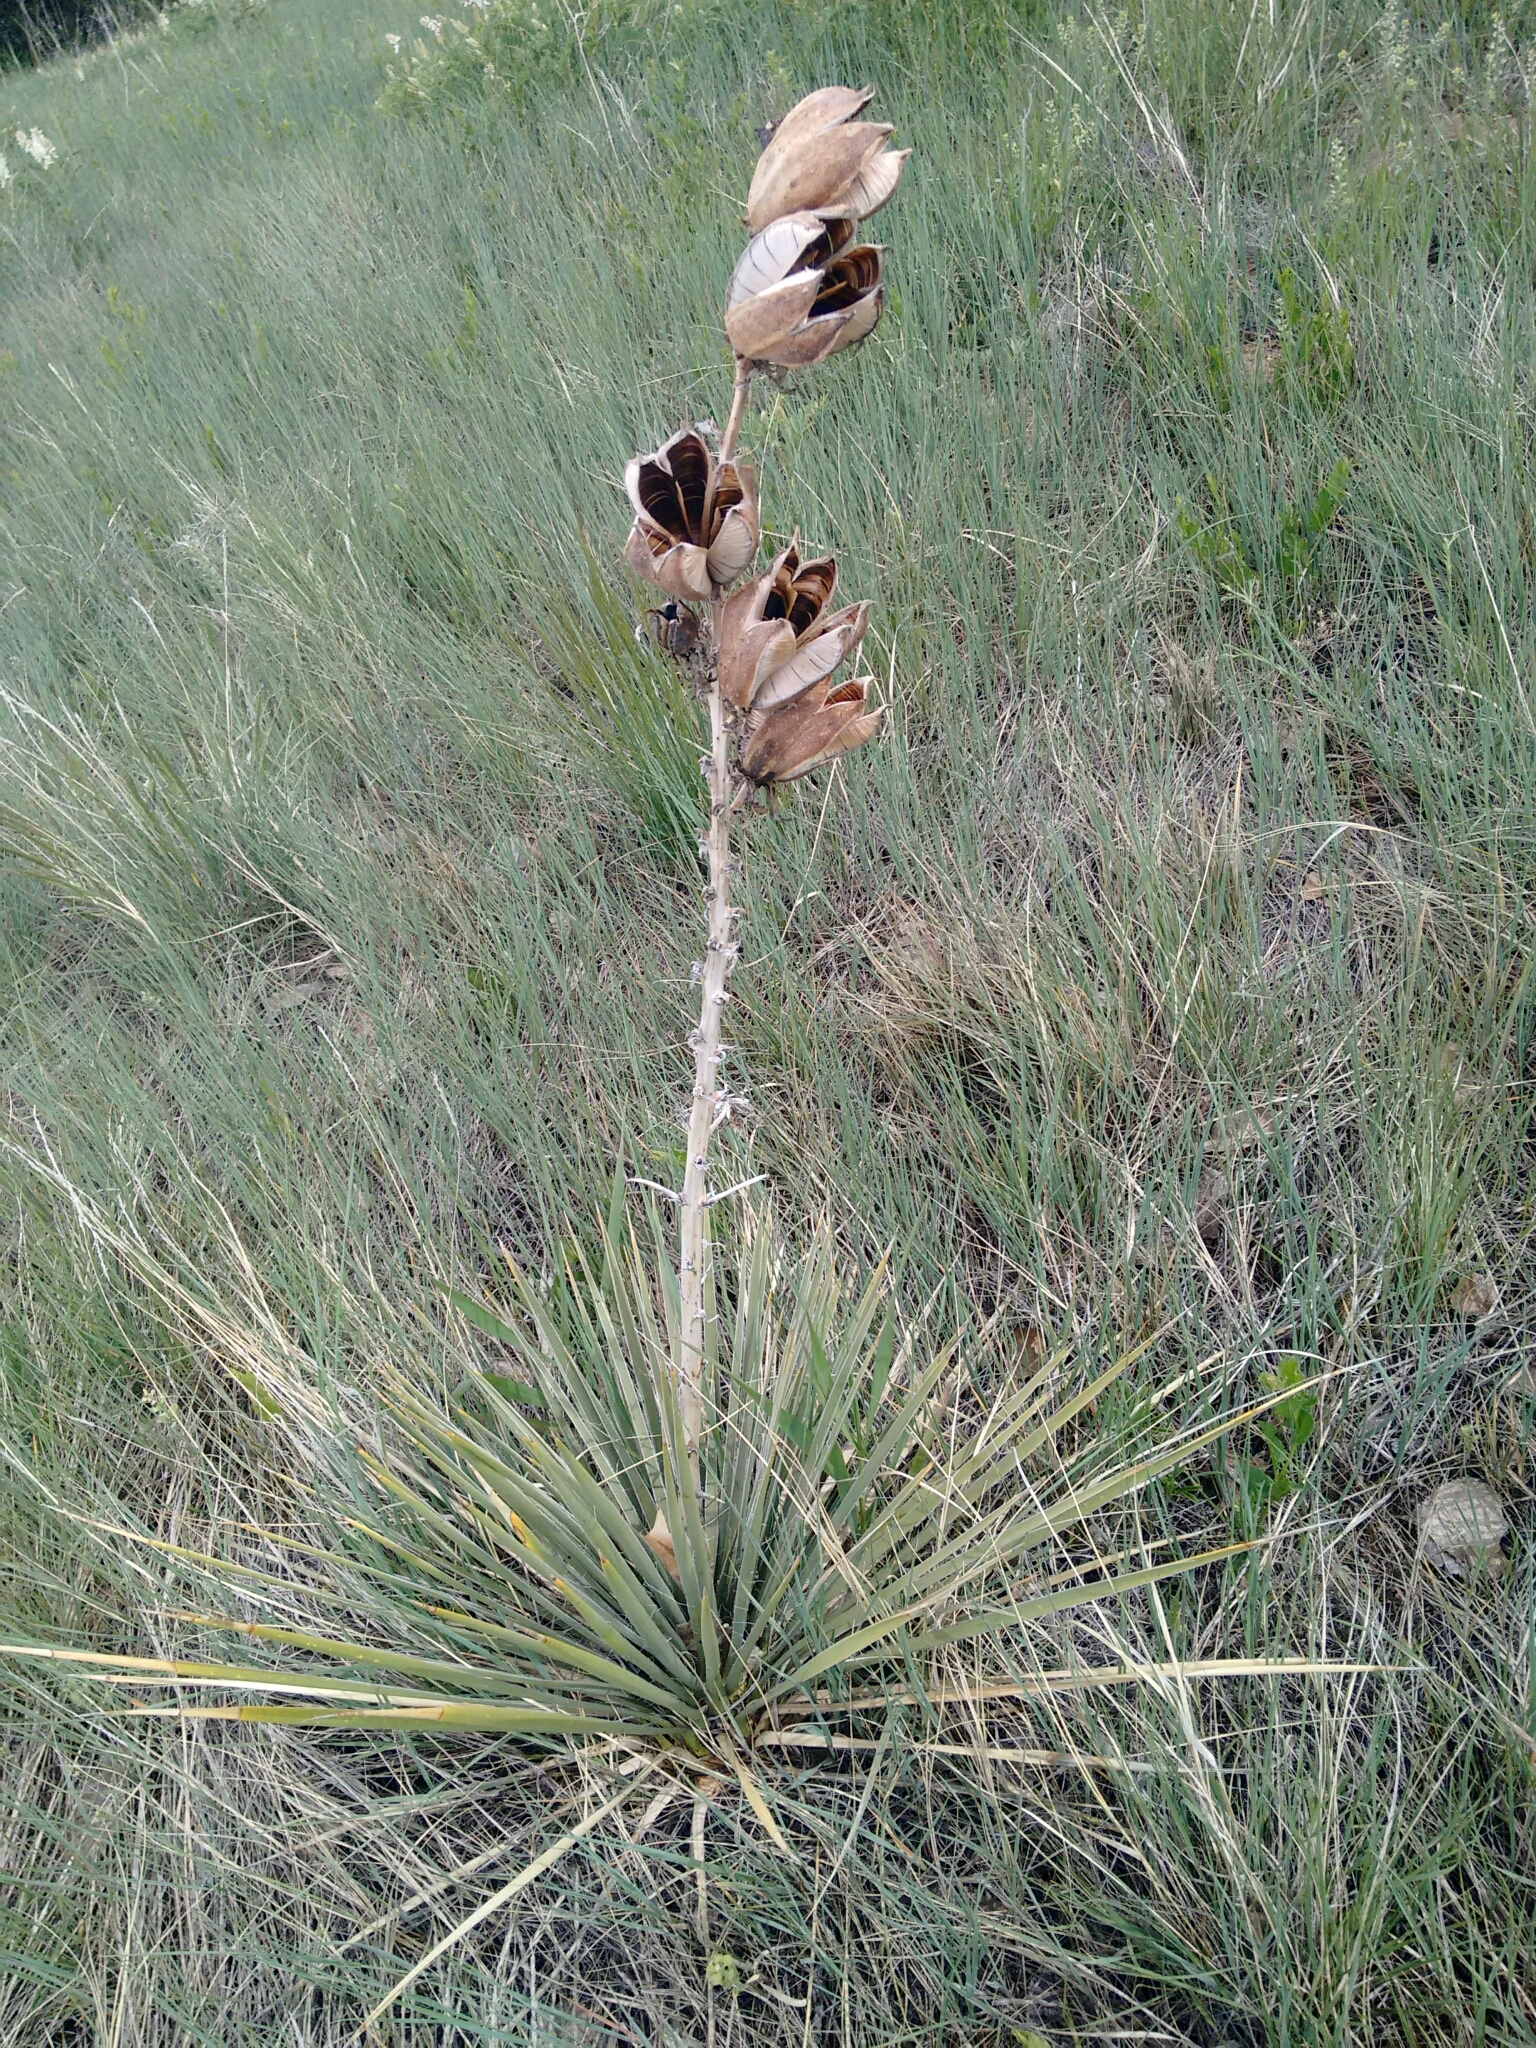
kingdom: Plantae
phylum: Tracheophyta
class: Liliopsida
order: Asparagales
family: Asparagaceae
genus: Yucca
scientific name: Yucca glauca
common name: Great plains yucca
